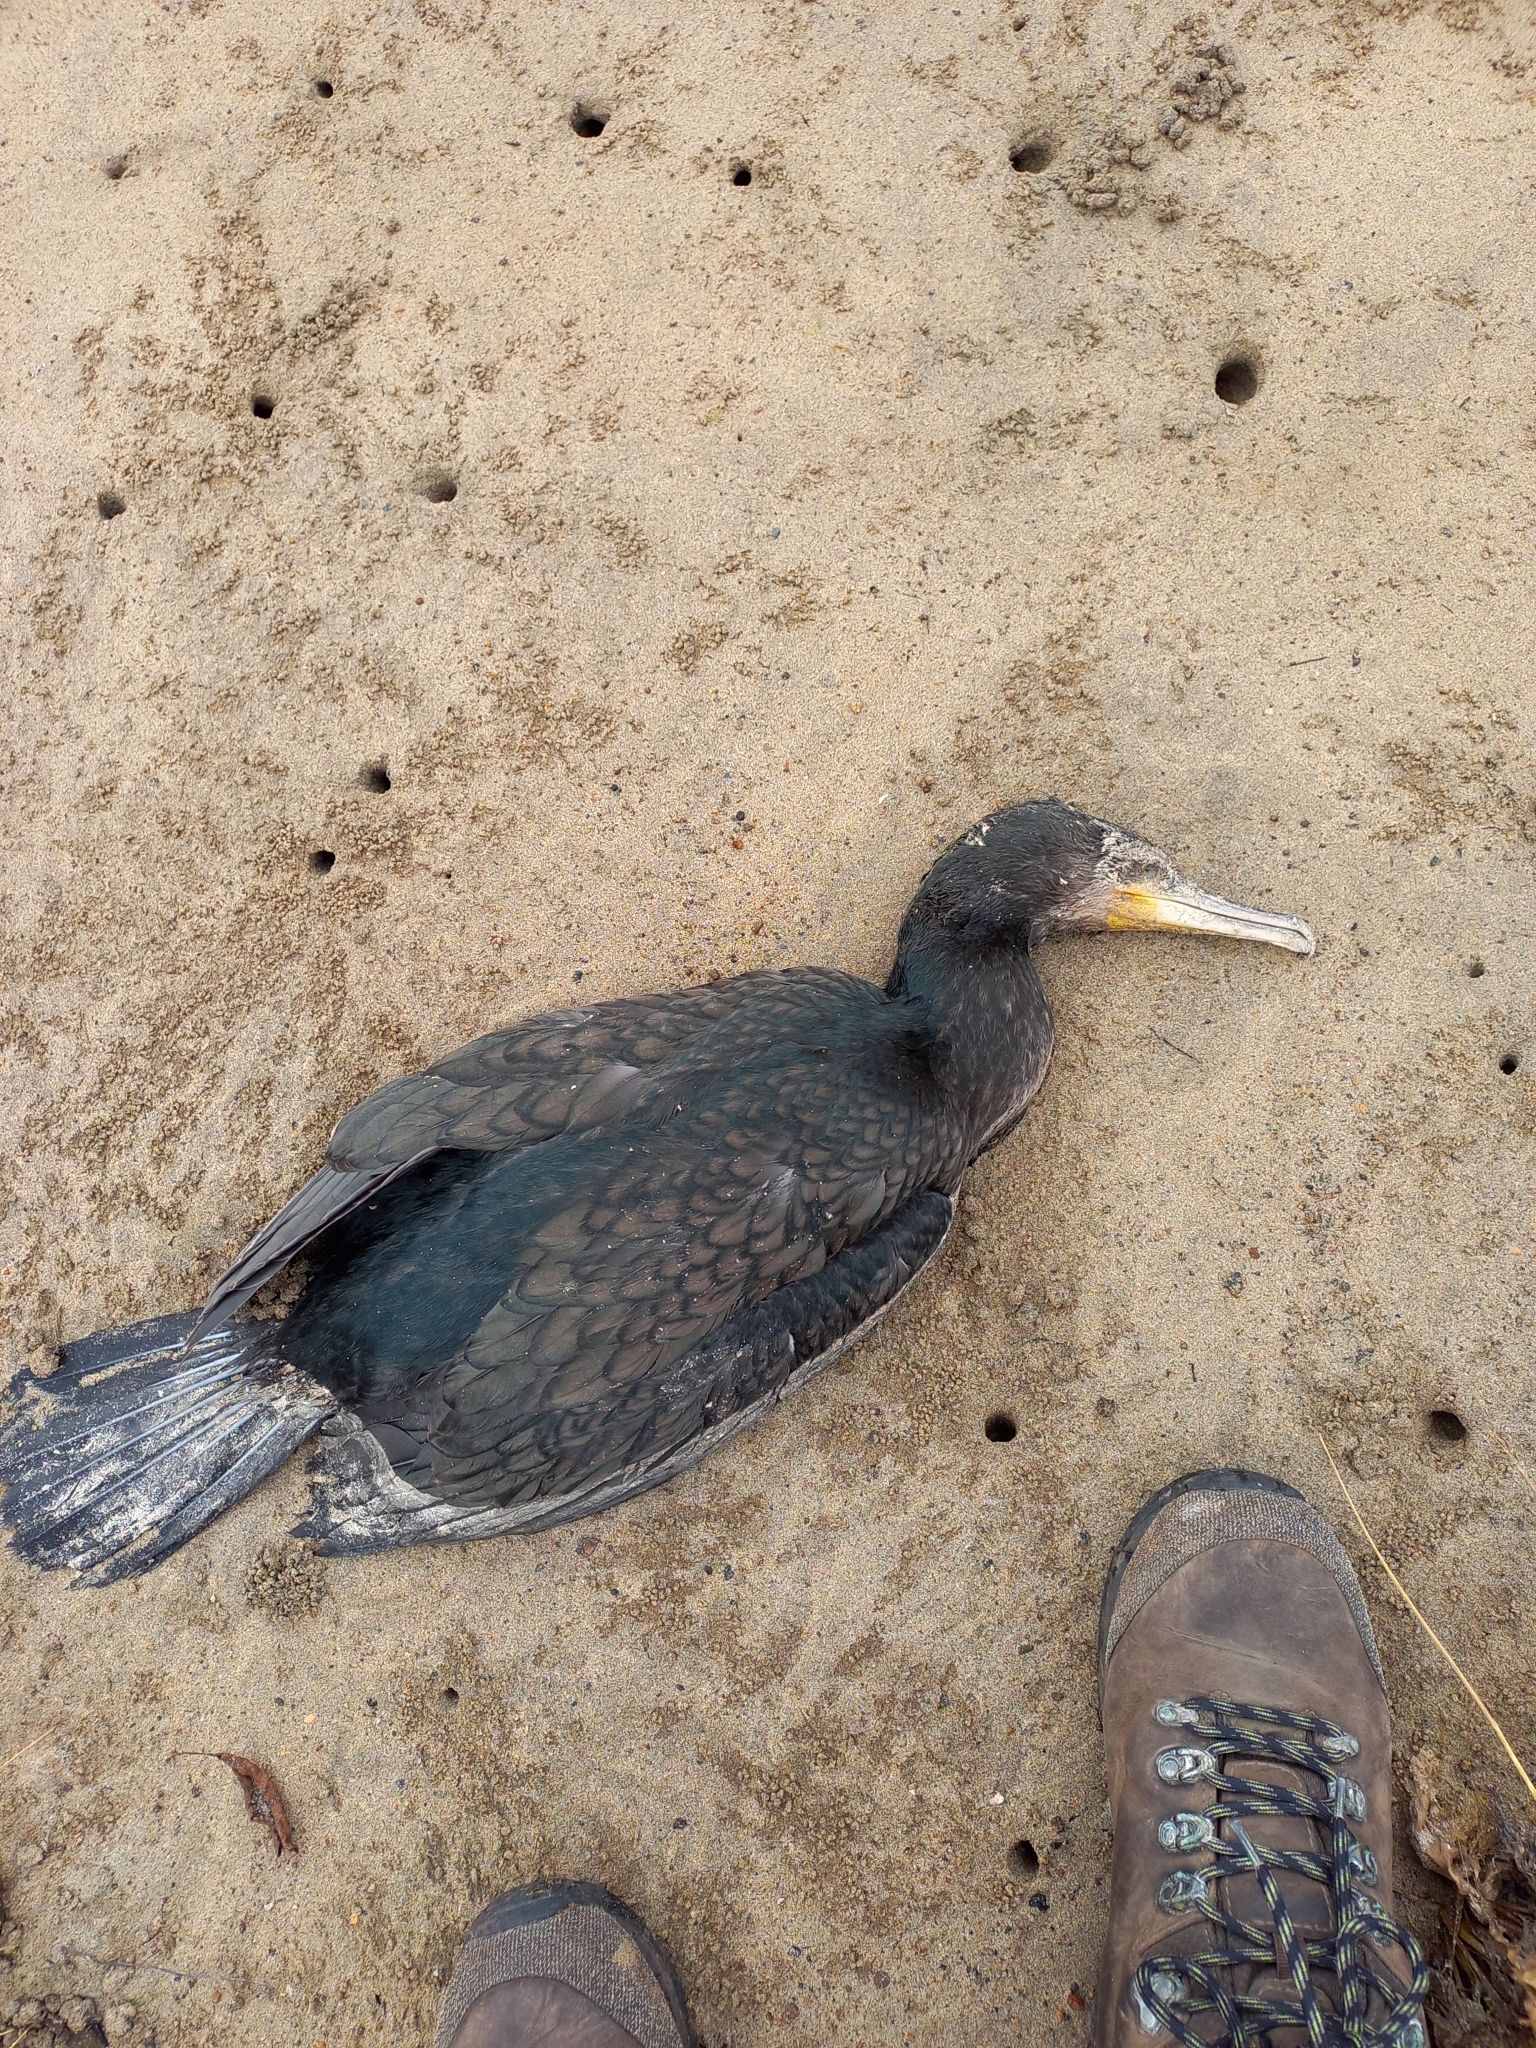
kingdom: Animalia
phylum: Chordata
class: Aves
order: Suliformes
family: Phalacrocoracidae
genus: Phalacrocorax
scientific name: Phalacrocorax carbo
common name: Great cormorant
